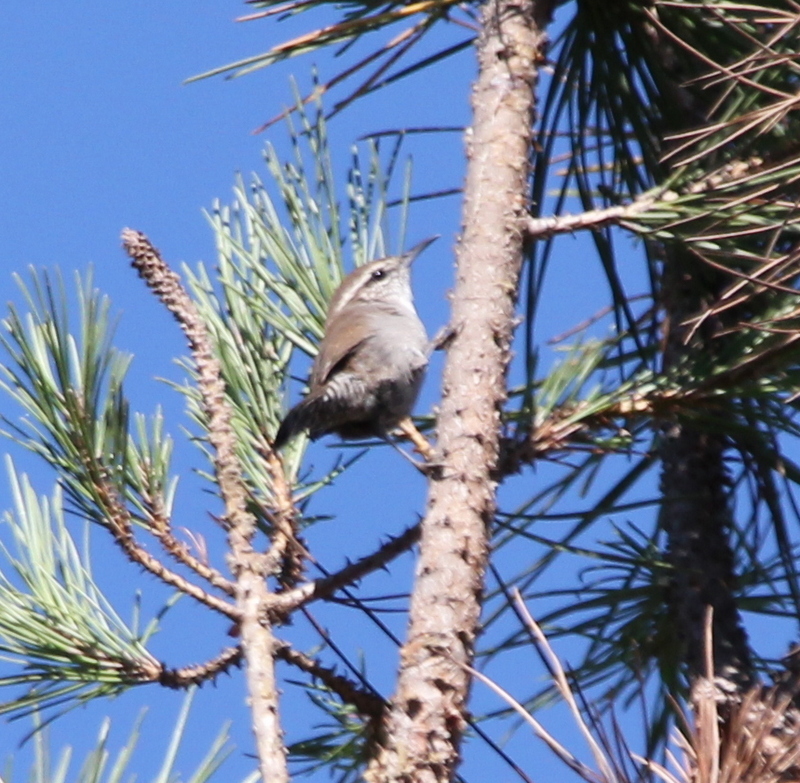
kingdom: Animalia
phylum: Chordata
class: Aves
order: Passeriformes
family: Troglodytidae
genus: Thryomanes
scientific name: Thryomanes bewickii
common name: Bewick's wren
